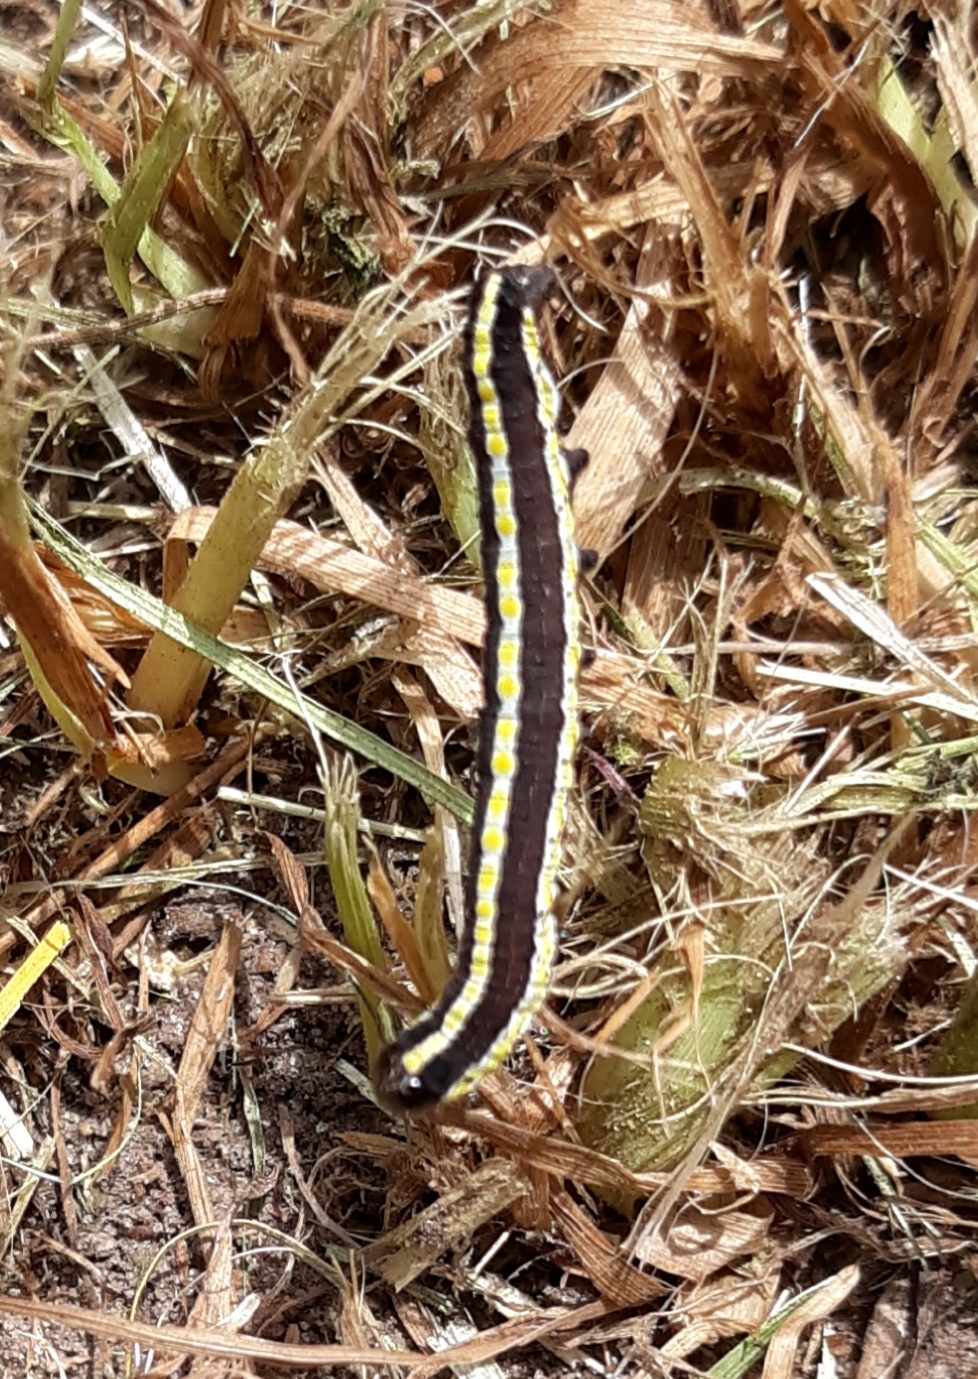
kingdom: Animalia
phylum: Arthropoda
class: Insecta
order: Lepidoptera
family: Noctuidae
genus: Cucullia
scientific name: Cucullia intermedia
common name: Goldenrod cutworm
